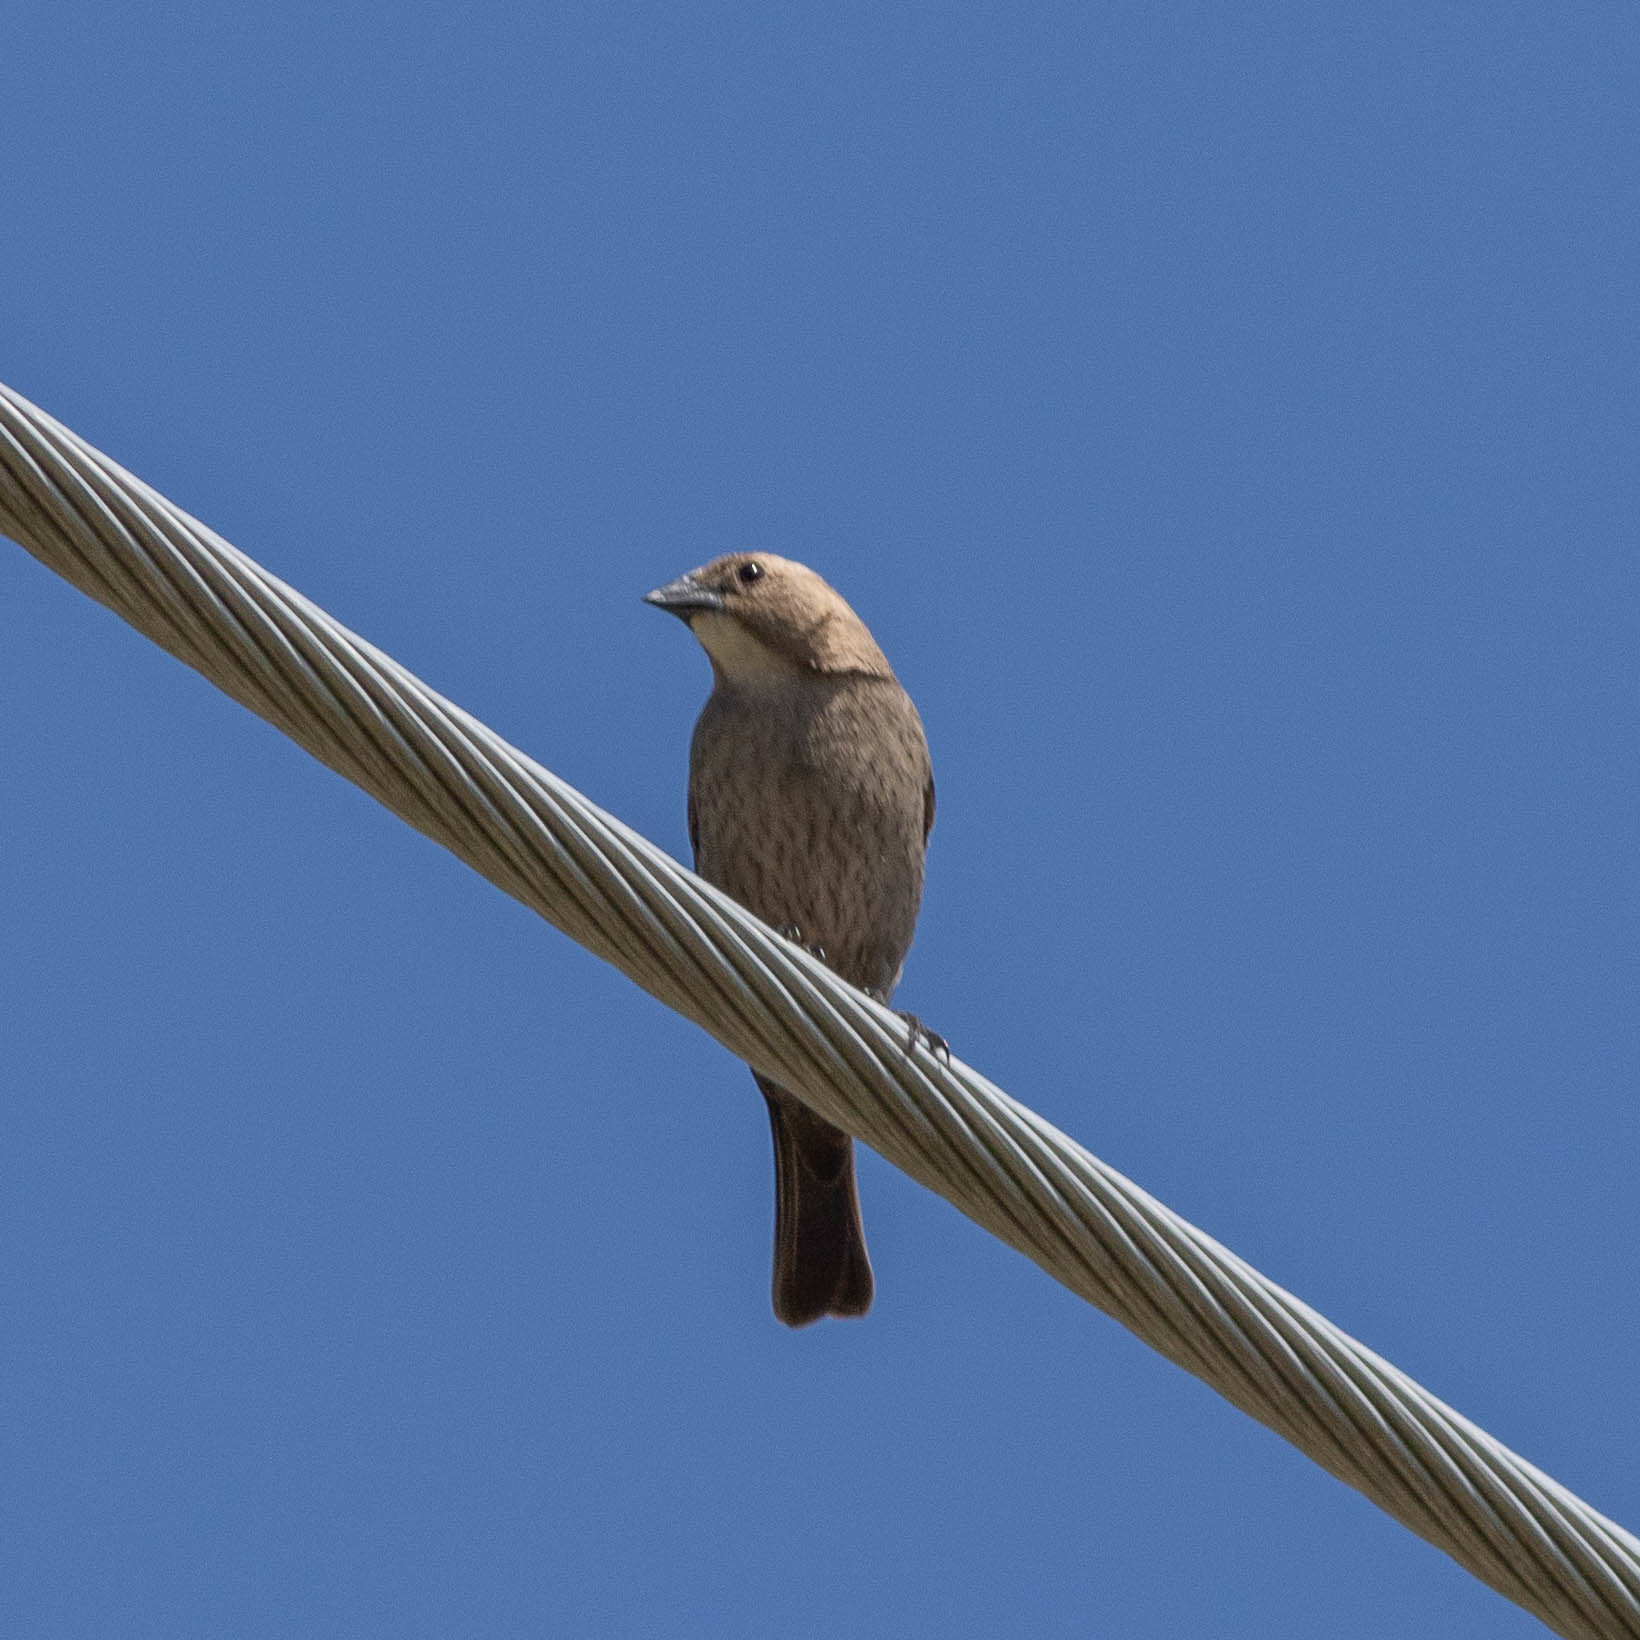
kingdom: Animalia
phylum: Chordata
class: Aves
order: Passeriformes
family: Icteridae
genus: Molothrus
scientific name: Molothrus ater
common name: Brown-headed cowbird
